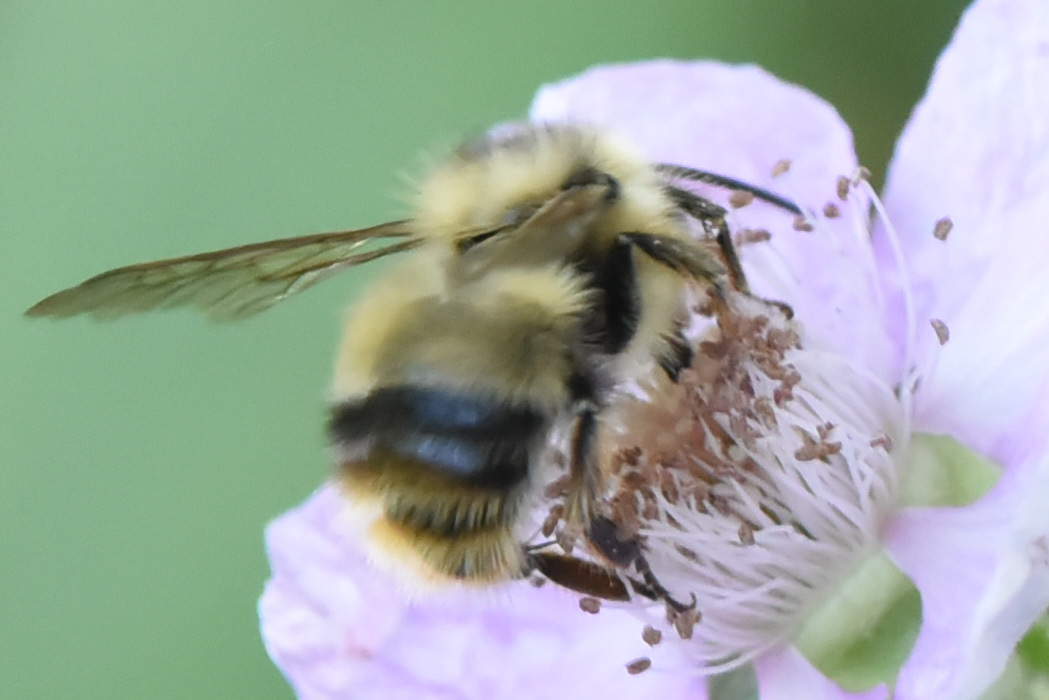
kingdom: Animalia
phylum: Arthropoda
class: Insecta
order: Hymenoptera
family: Apidae
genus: Bombus
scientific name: Bombus mixtus
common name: Fuzzy-horned bumble bee
